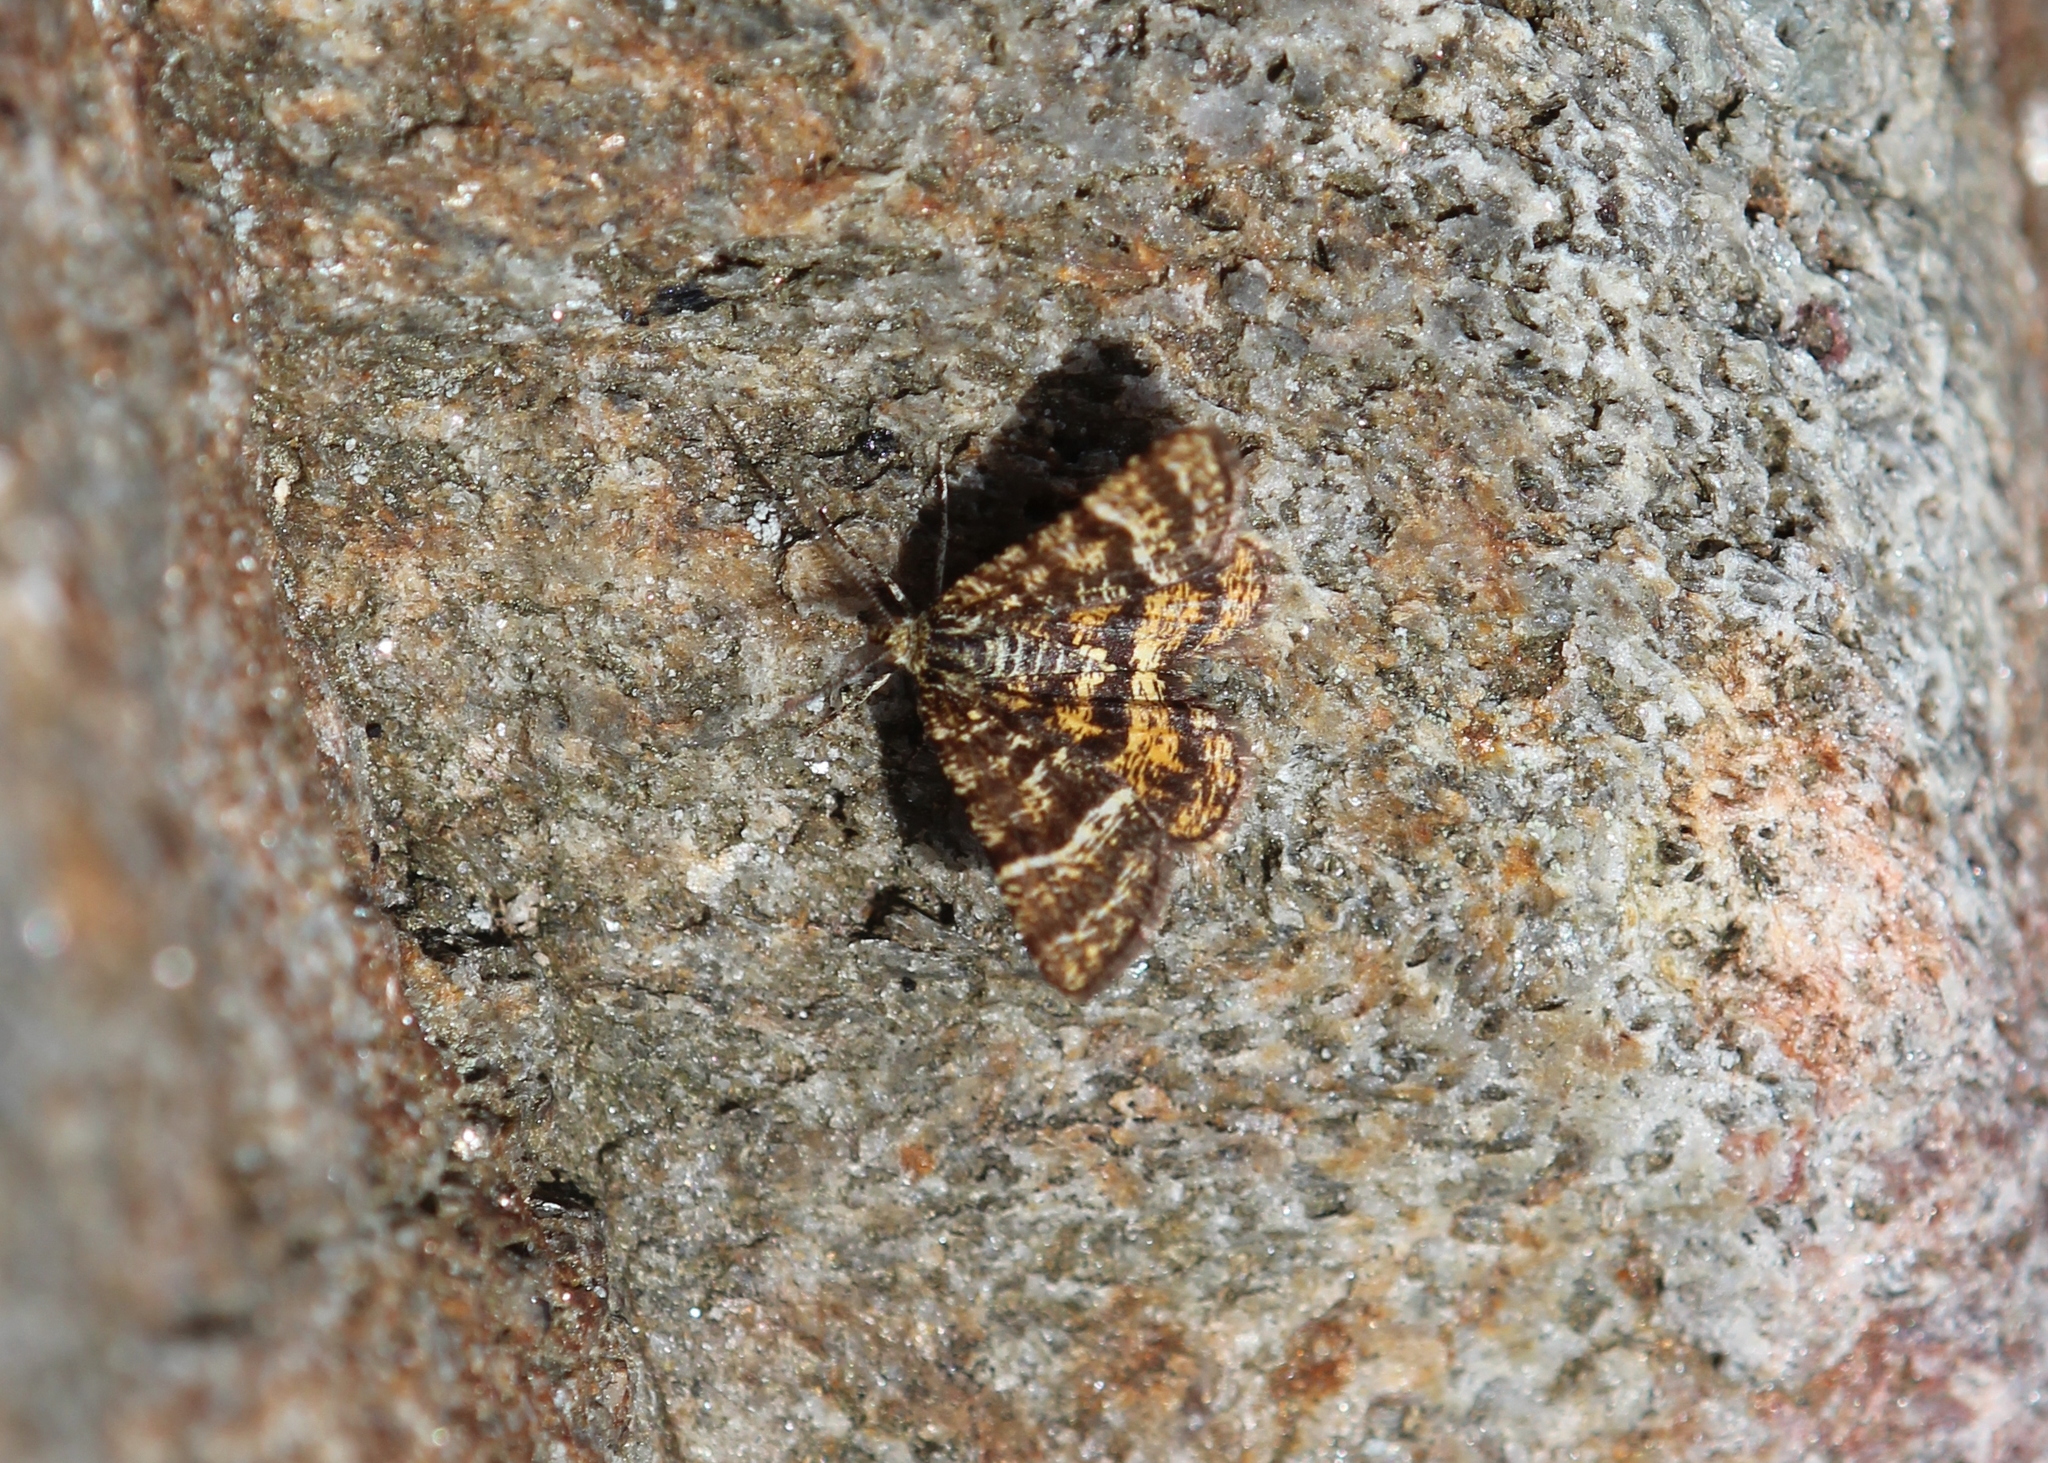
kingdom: Animalia
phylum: Arthropoda
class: Insecta
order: Lepidoptera
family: Geometridae
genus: Macaria
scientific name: Macaria truncataria
